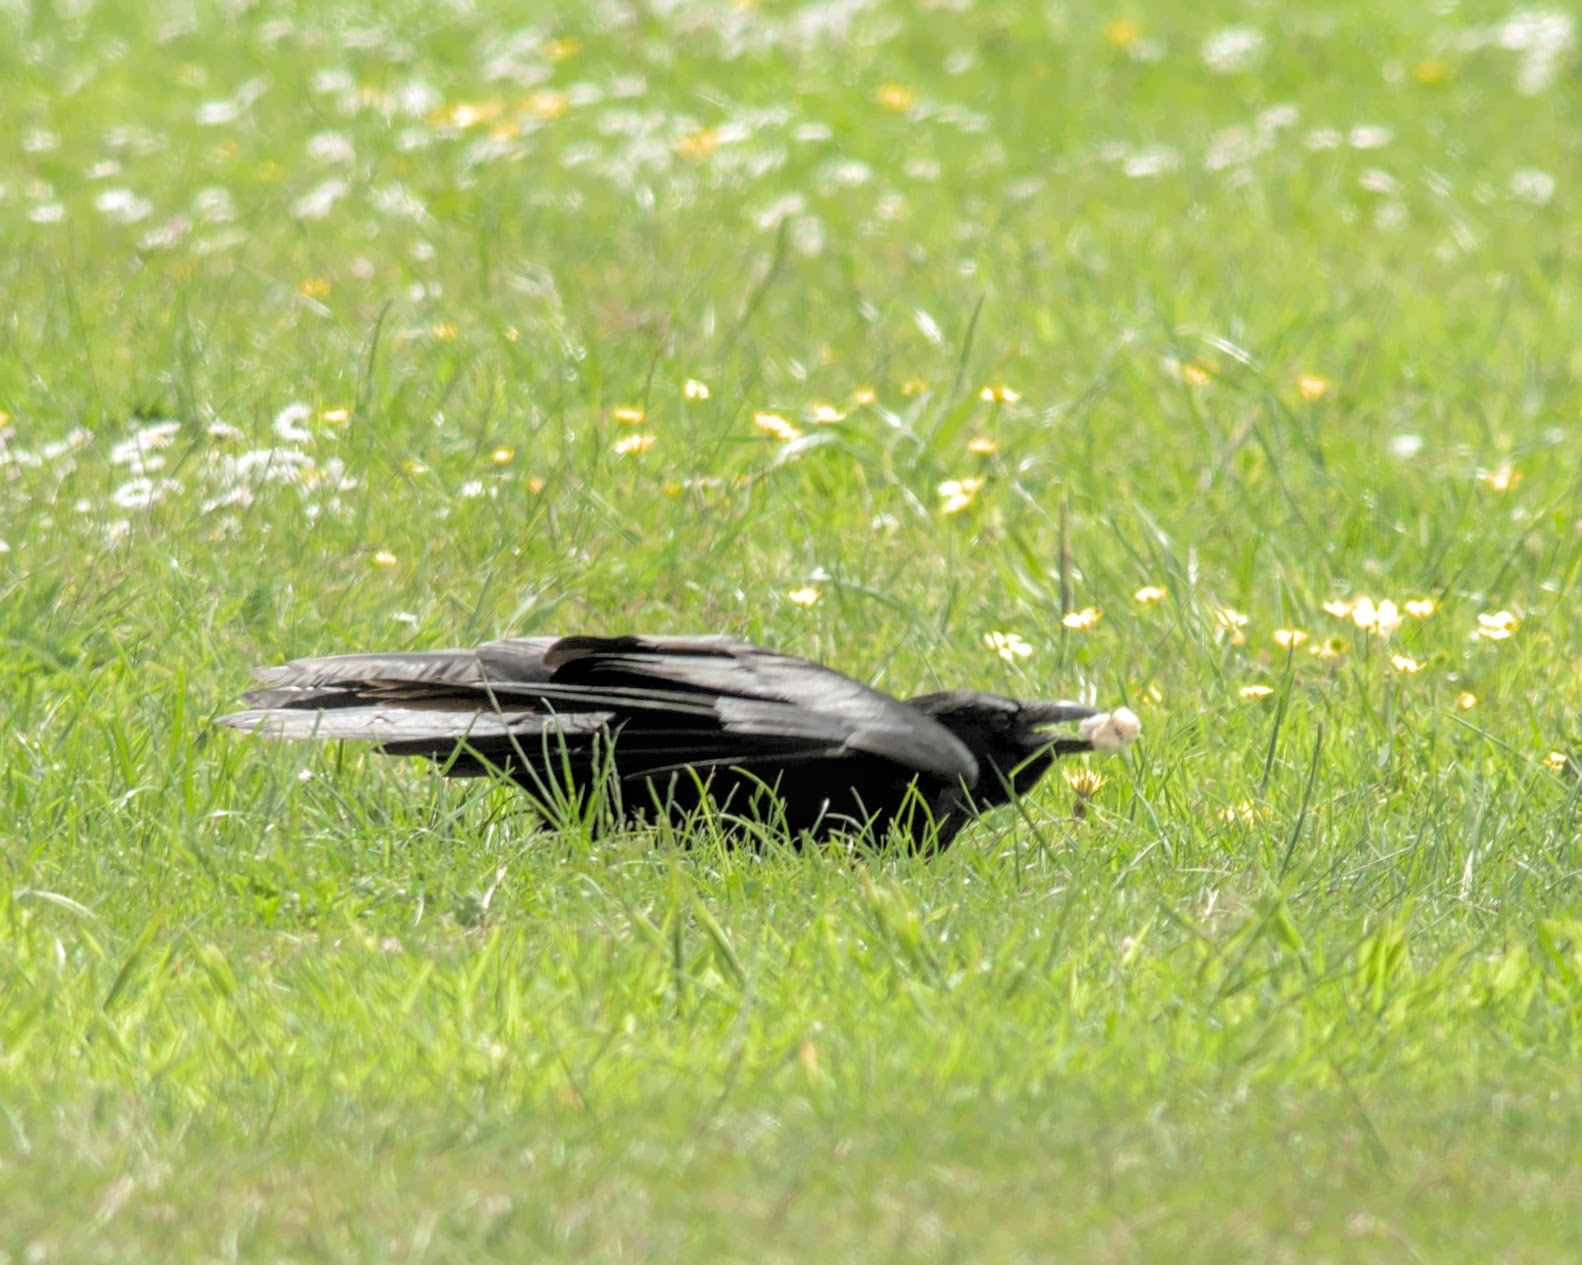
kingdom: Animalia
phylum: Chordata
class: Aves
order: Passeriformes
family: Corvidae
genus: Corvus
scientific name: Corvus corone
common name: Carrion crow
